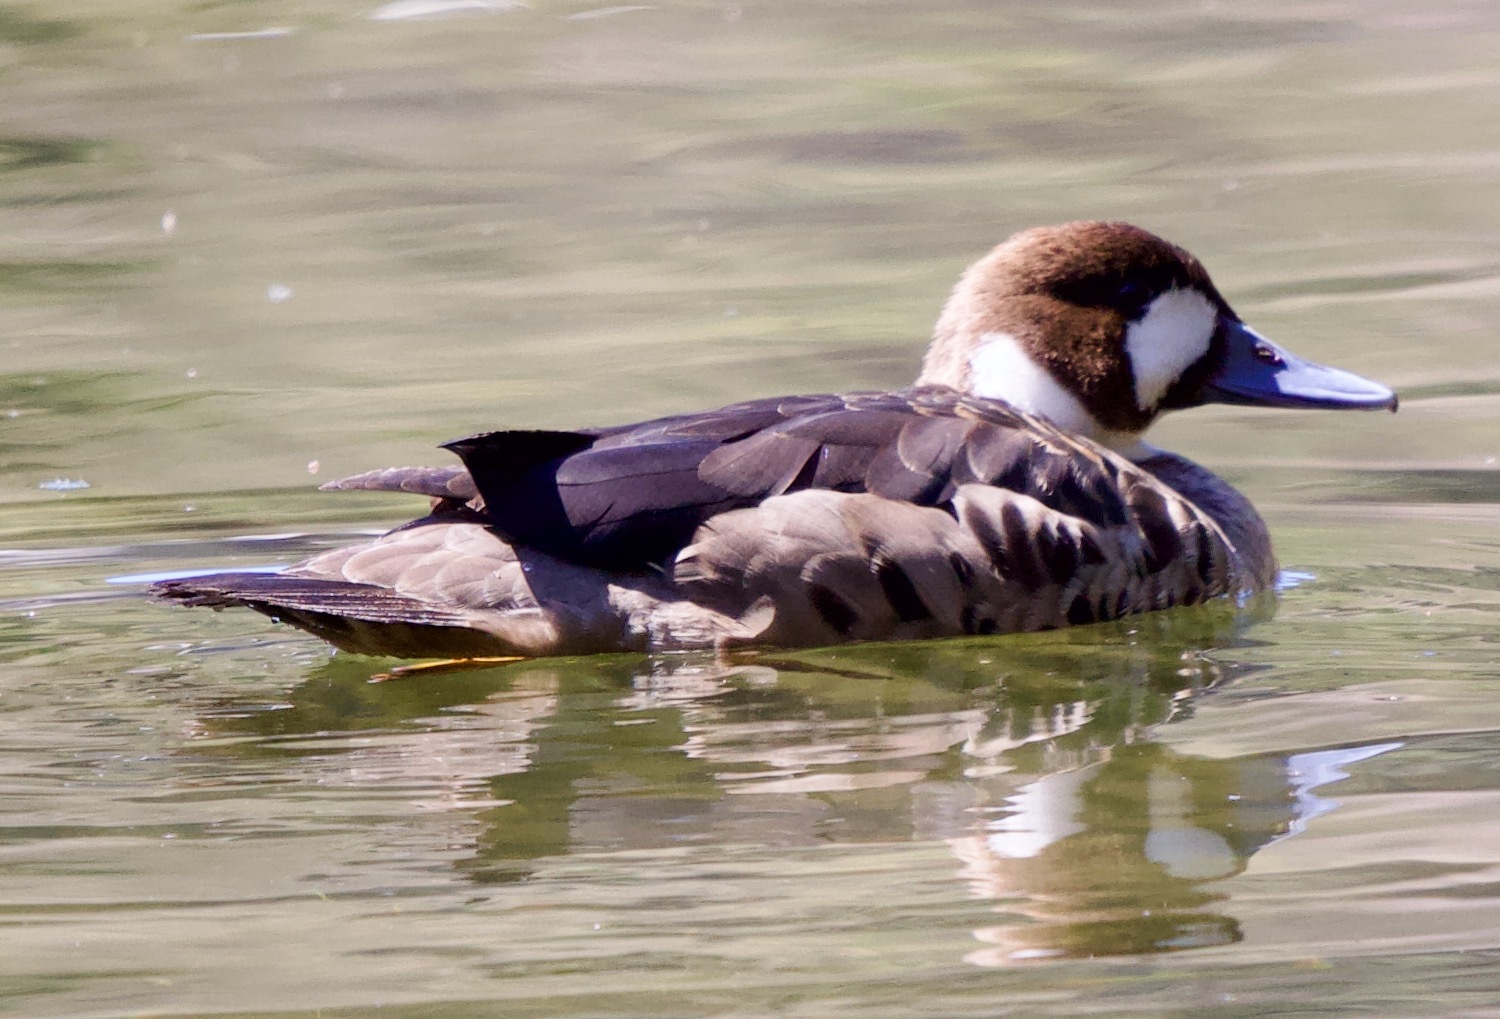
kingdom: Animalia
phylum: Chordata
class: Aves
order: Anseriformes
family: Anatidae
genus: Speculanas
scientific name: Speculanas specularis
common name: Bronze-winged duck
